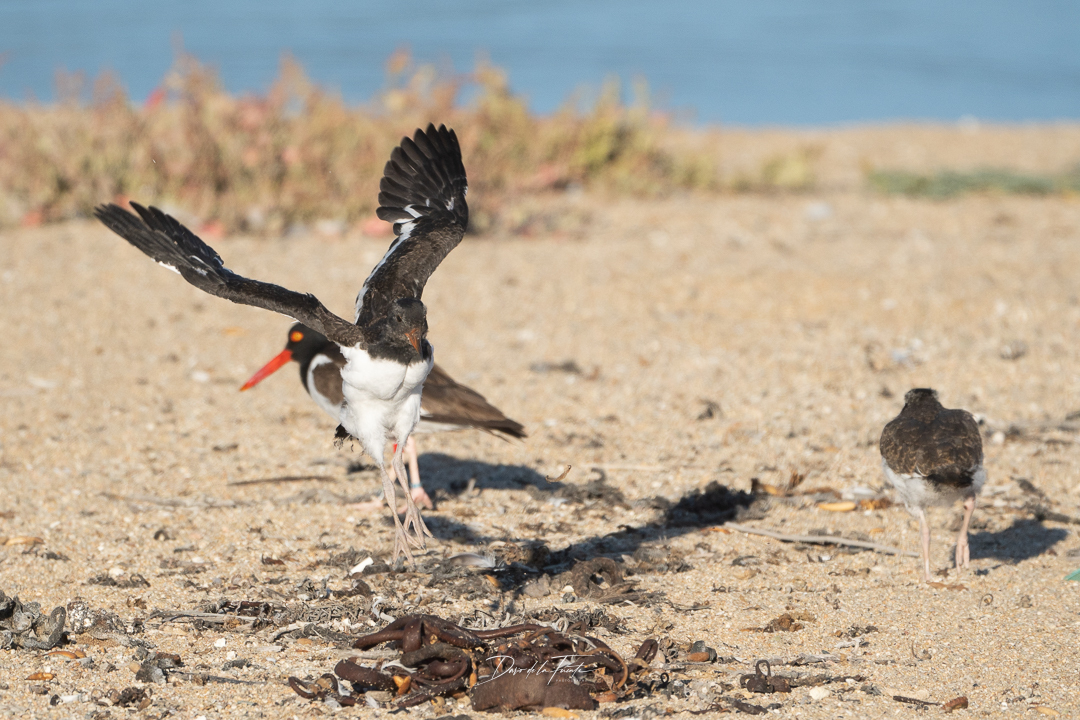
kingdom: Animalia
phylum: Chordata
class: Aves
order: Charadriiformes
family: Haematopodidae
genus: Haematopus
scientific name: Haematopus palliatus
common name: American oystercatcher
